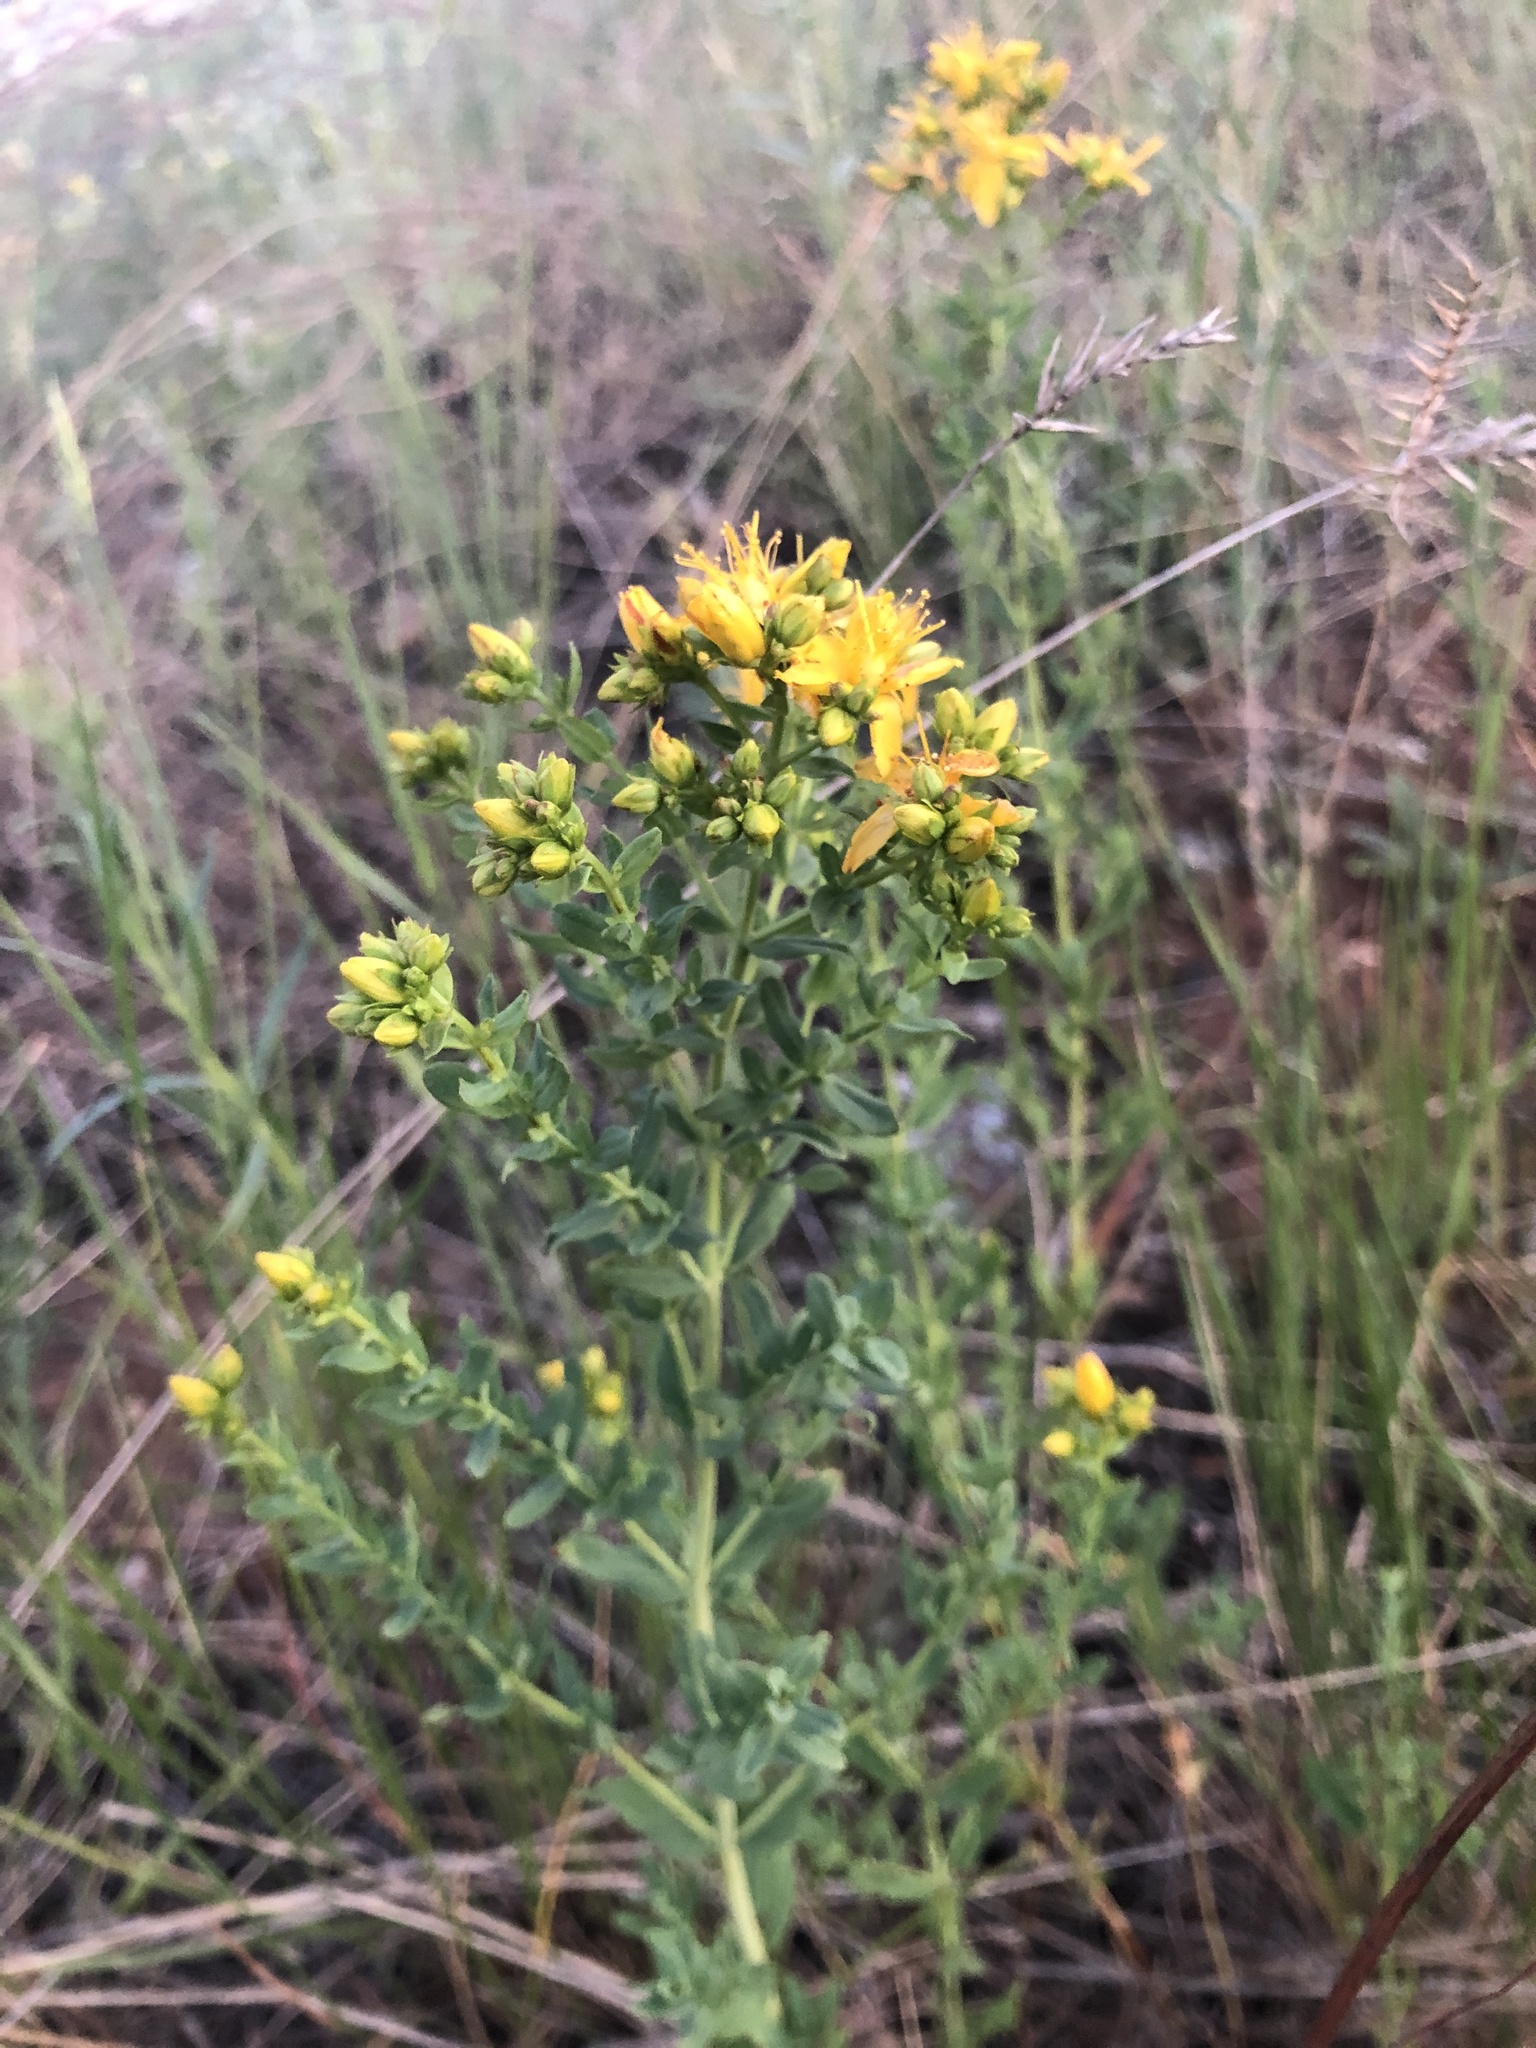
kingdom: Plantae
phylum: Tracheophyta
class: Magnoliopsida
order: Malpighiales
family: Hypericaceae
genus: Hypericum
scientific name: Hypericum perforatum
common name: Common st. johnswort
